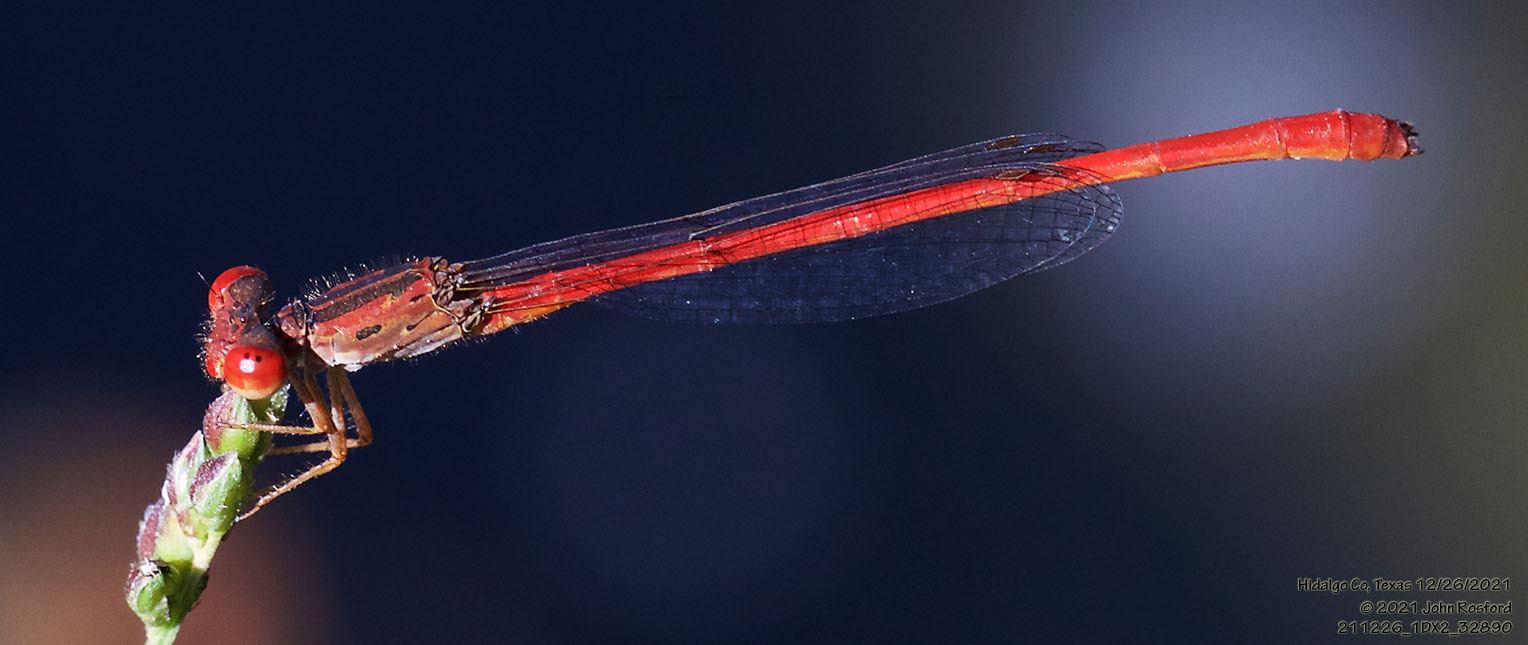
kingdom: Animalia
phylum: Arthropoda
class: Insecta
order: Odonata
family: Coenagrionidae
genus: Telebasis
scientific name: Telebasis salva
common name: Desert firetail
